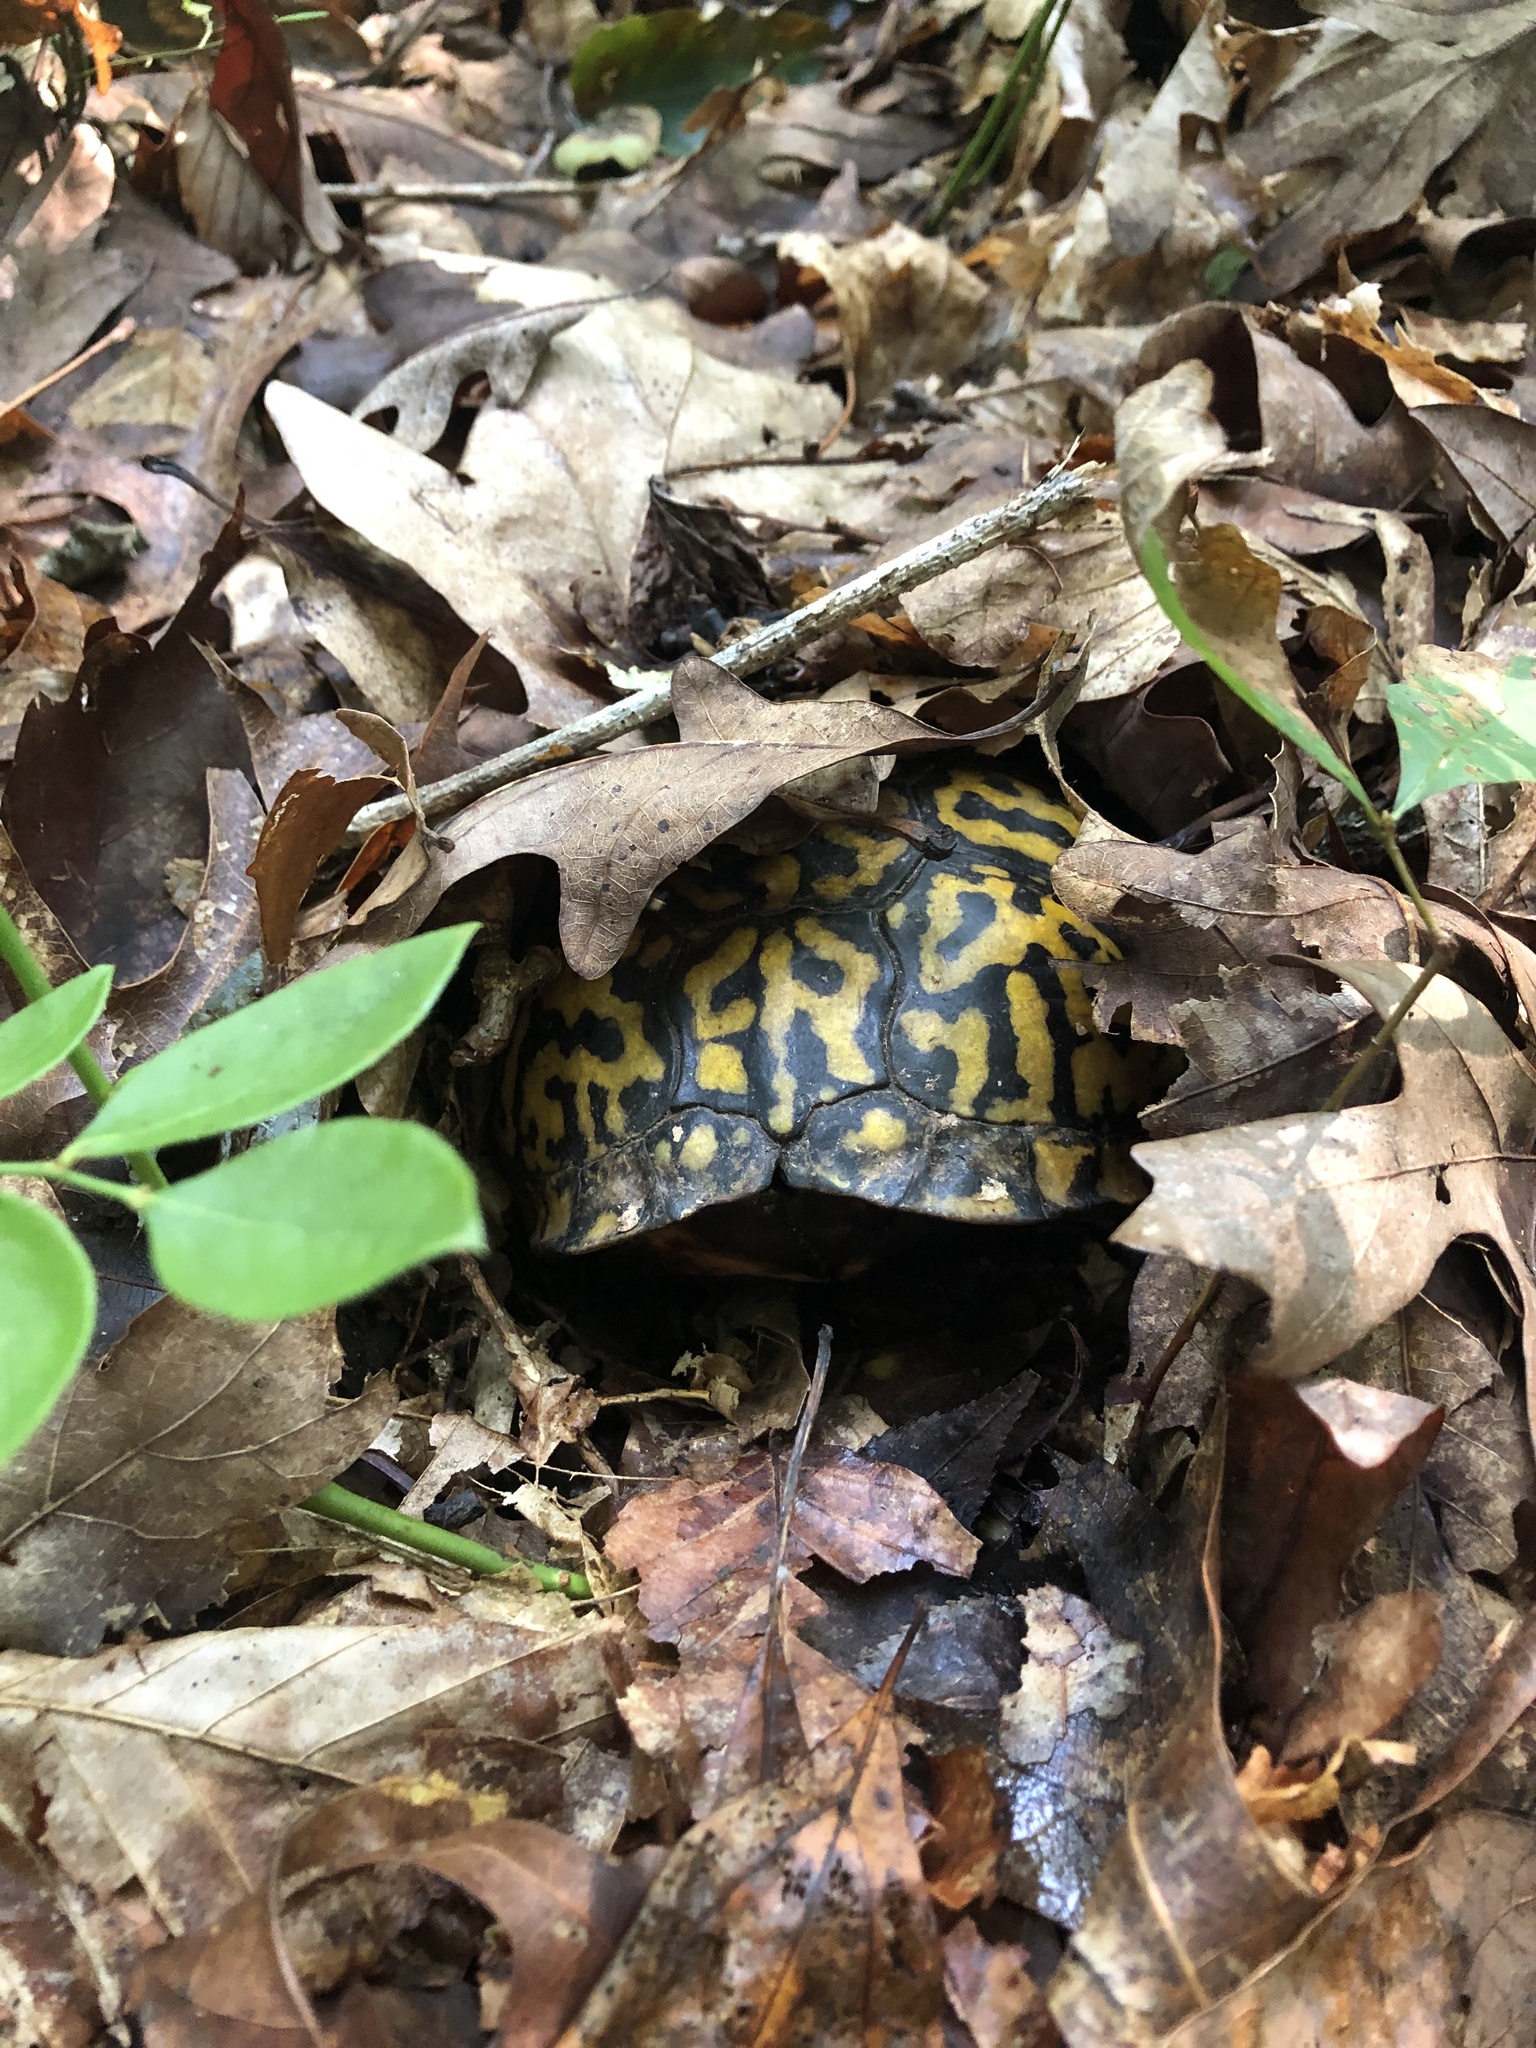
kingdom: Animalia
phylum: Chordata
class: Testudines
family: Emydidae
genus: Terrapene
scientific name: Terrapene carolina
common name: Common box turtle
